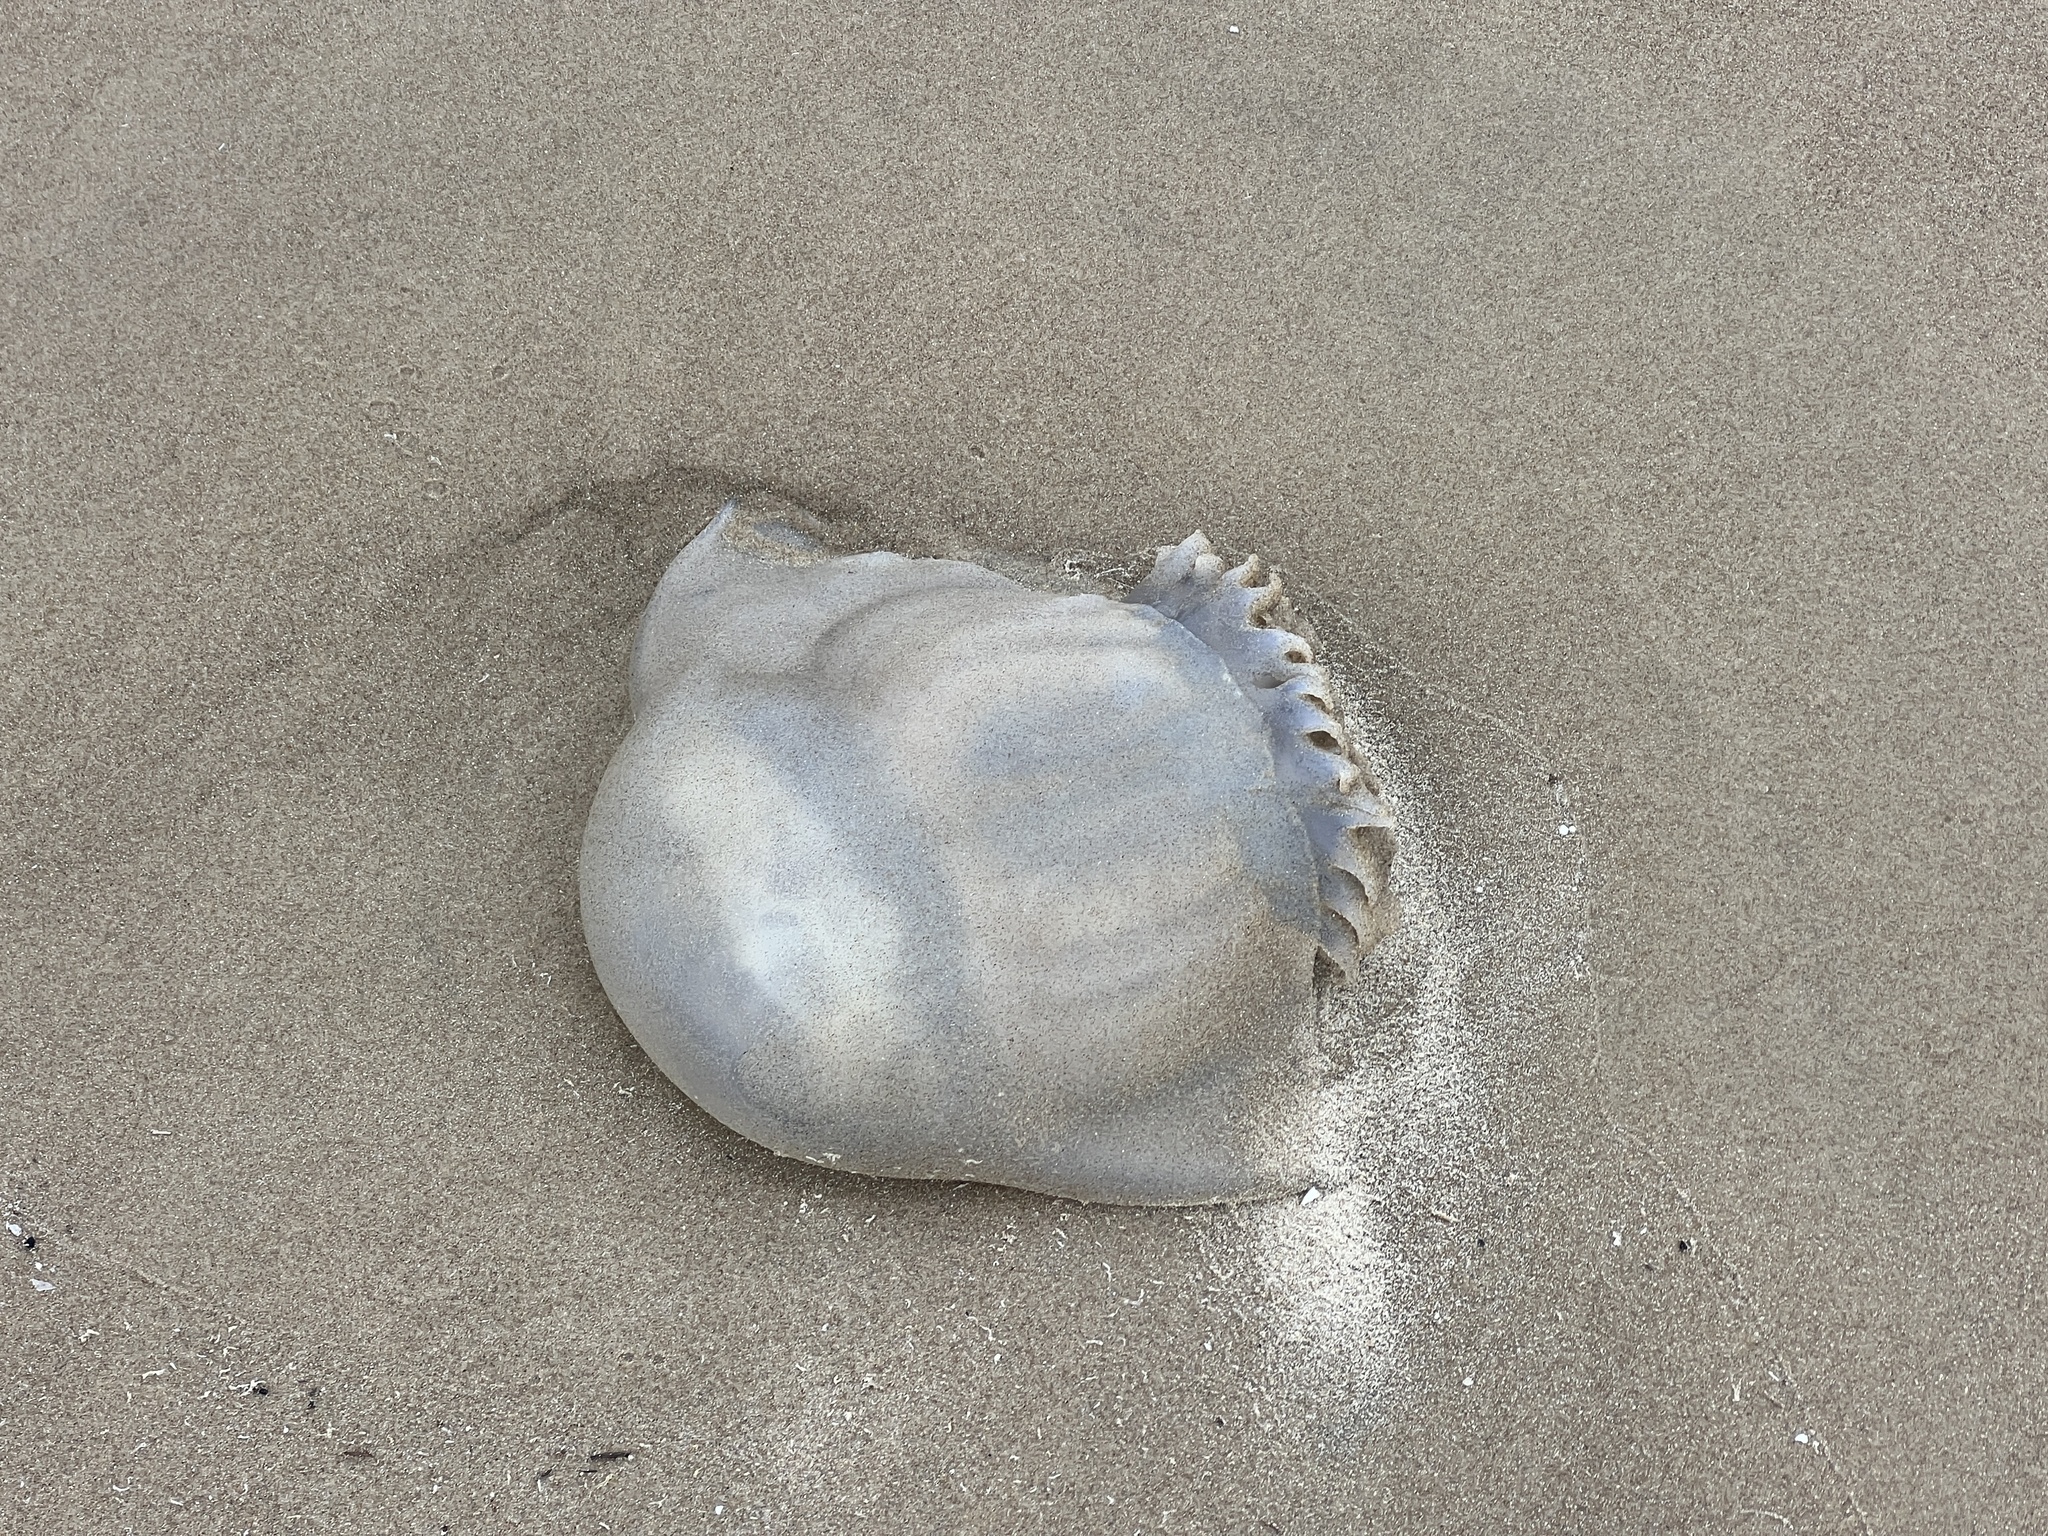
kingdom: Animalia
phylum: Cnidaria
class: Scyphozoa
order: Rhizostomeae
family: Stomolophidae
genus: Stomolophus
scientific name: Stomolophus meleagris
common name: Cabbagehead
